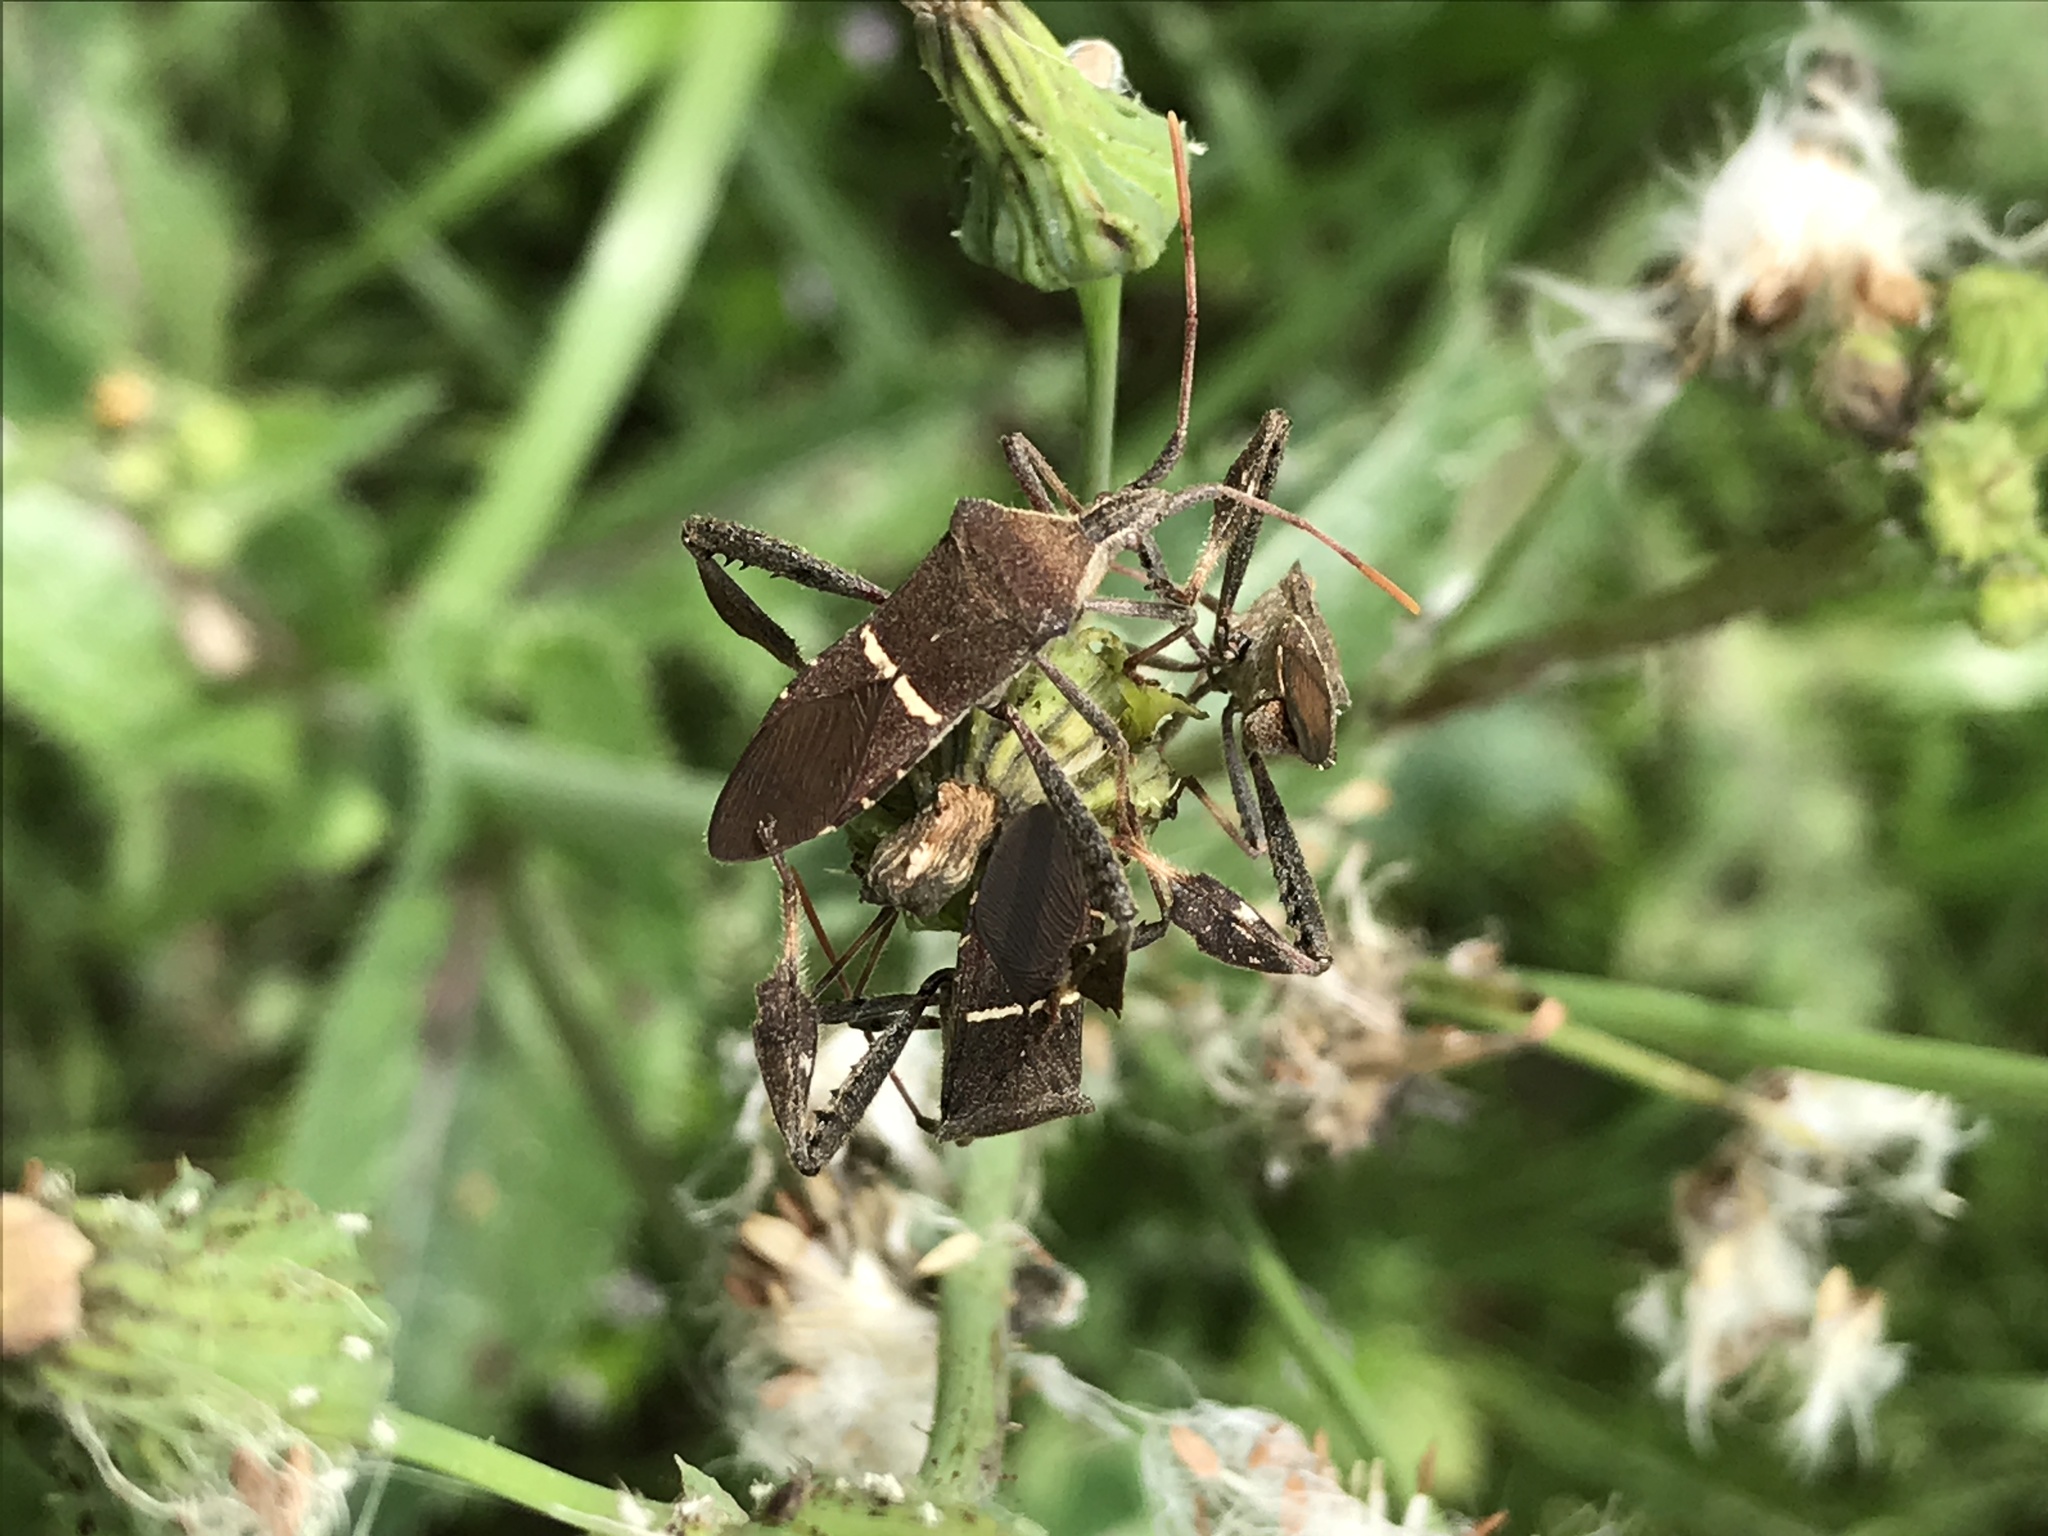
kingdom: Animalia
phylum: Arthropoda
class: Insecta
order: Hemiptera
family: Coreidae
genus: Leptoglossus
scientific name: Leptoglossus phyllopus
